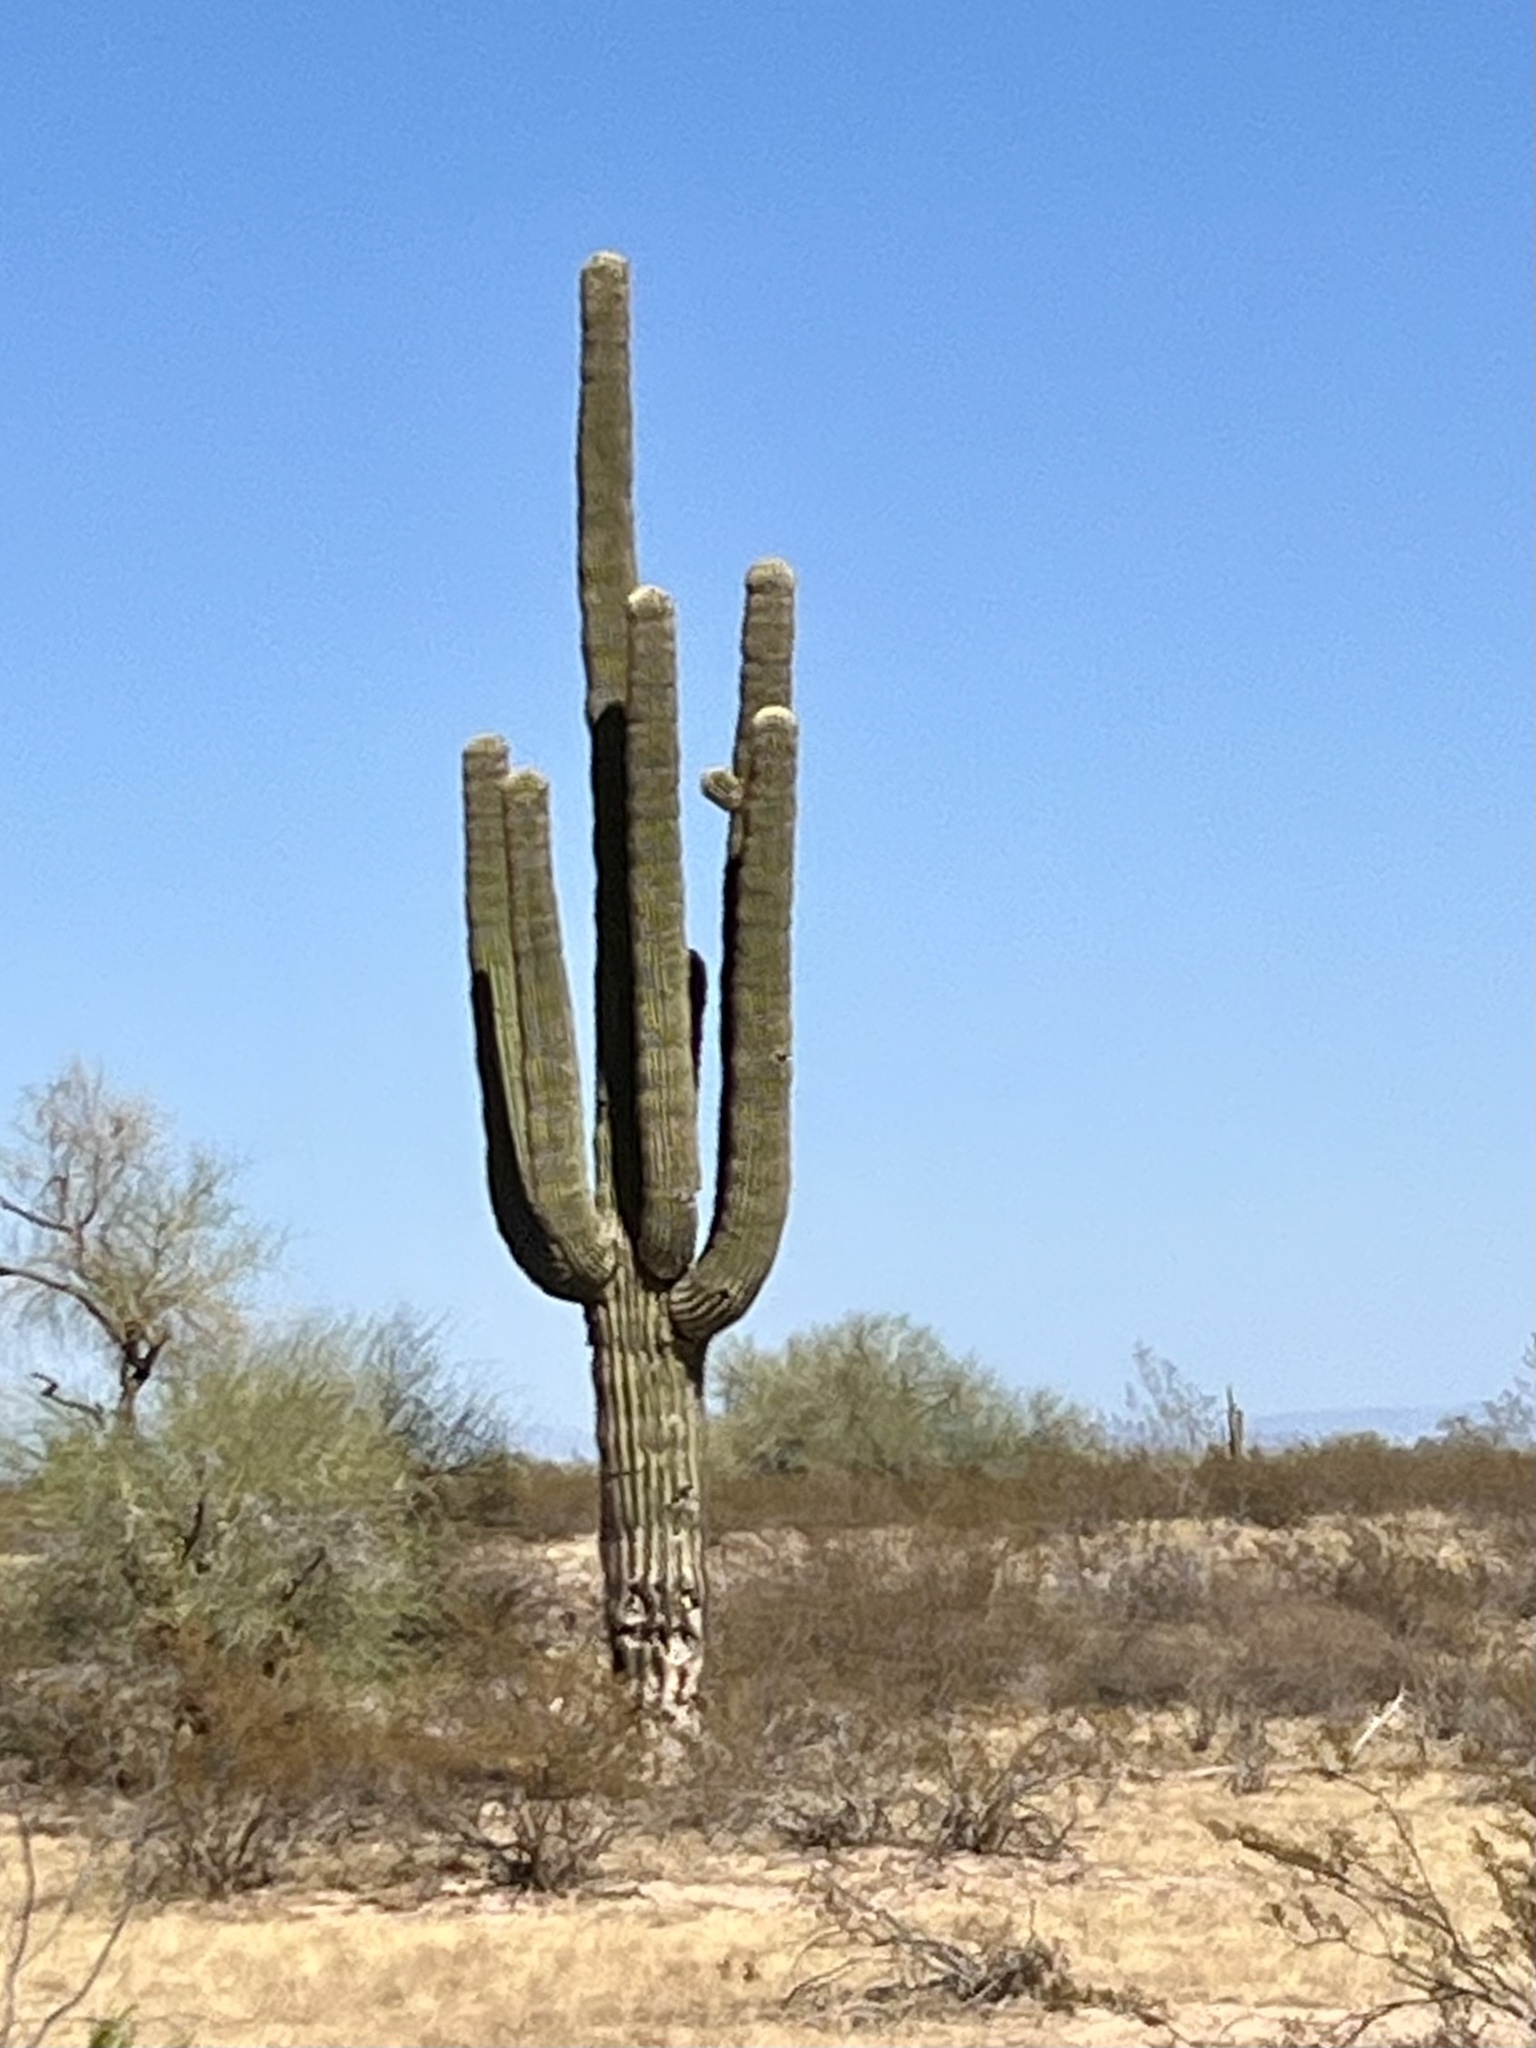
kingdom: Plantae
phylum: Tracheophyta
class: Magnoliopsida
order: Caryophyllales
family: Cactaceae
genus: Carnegiea
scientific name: Carnegiea gigantea
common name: Saguaro
